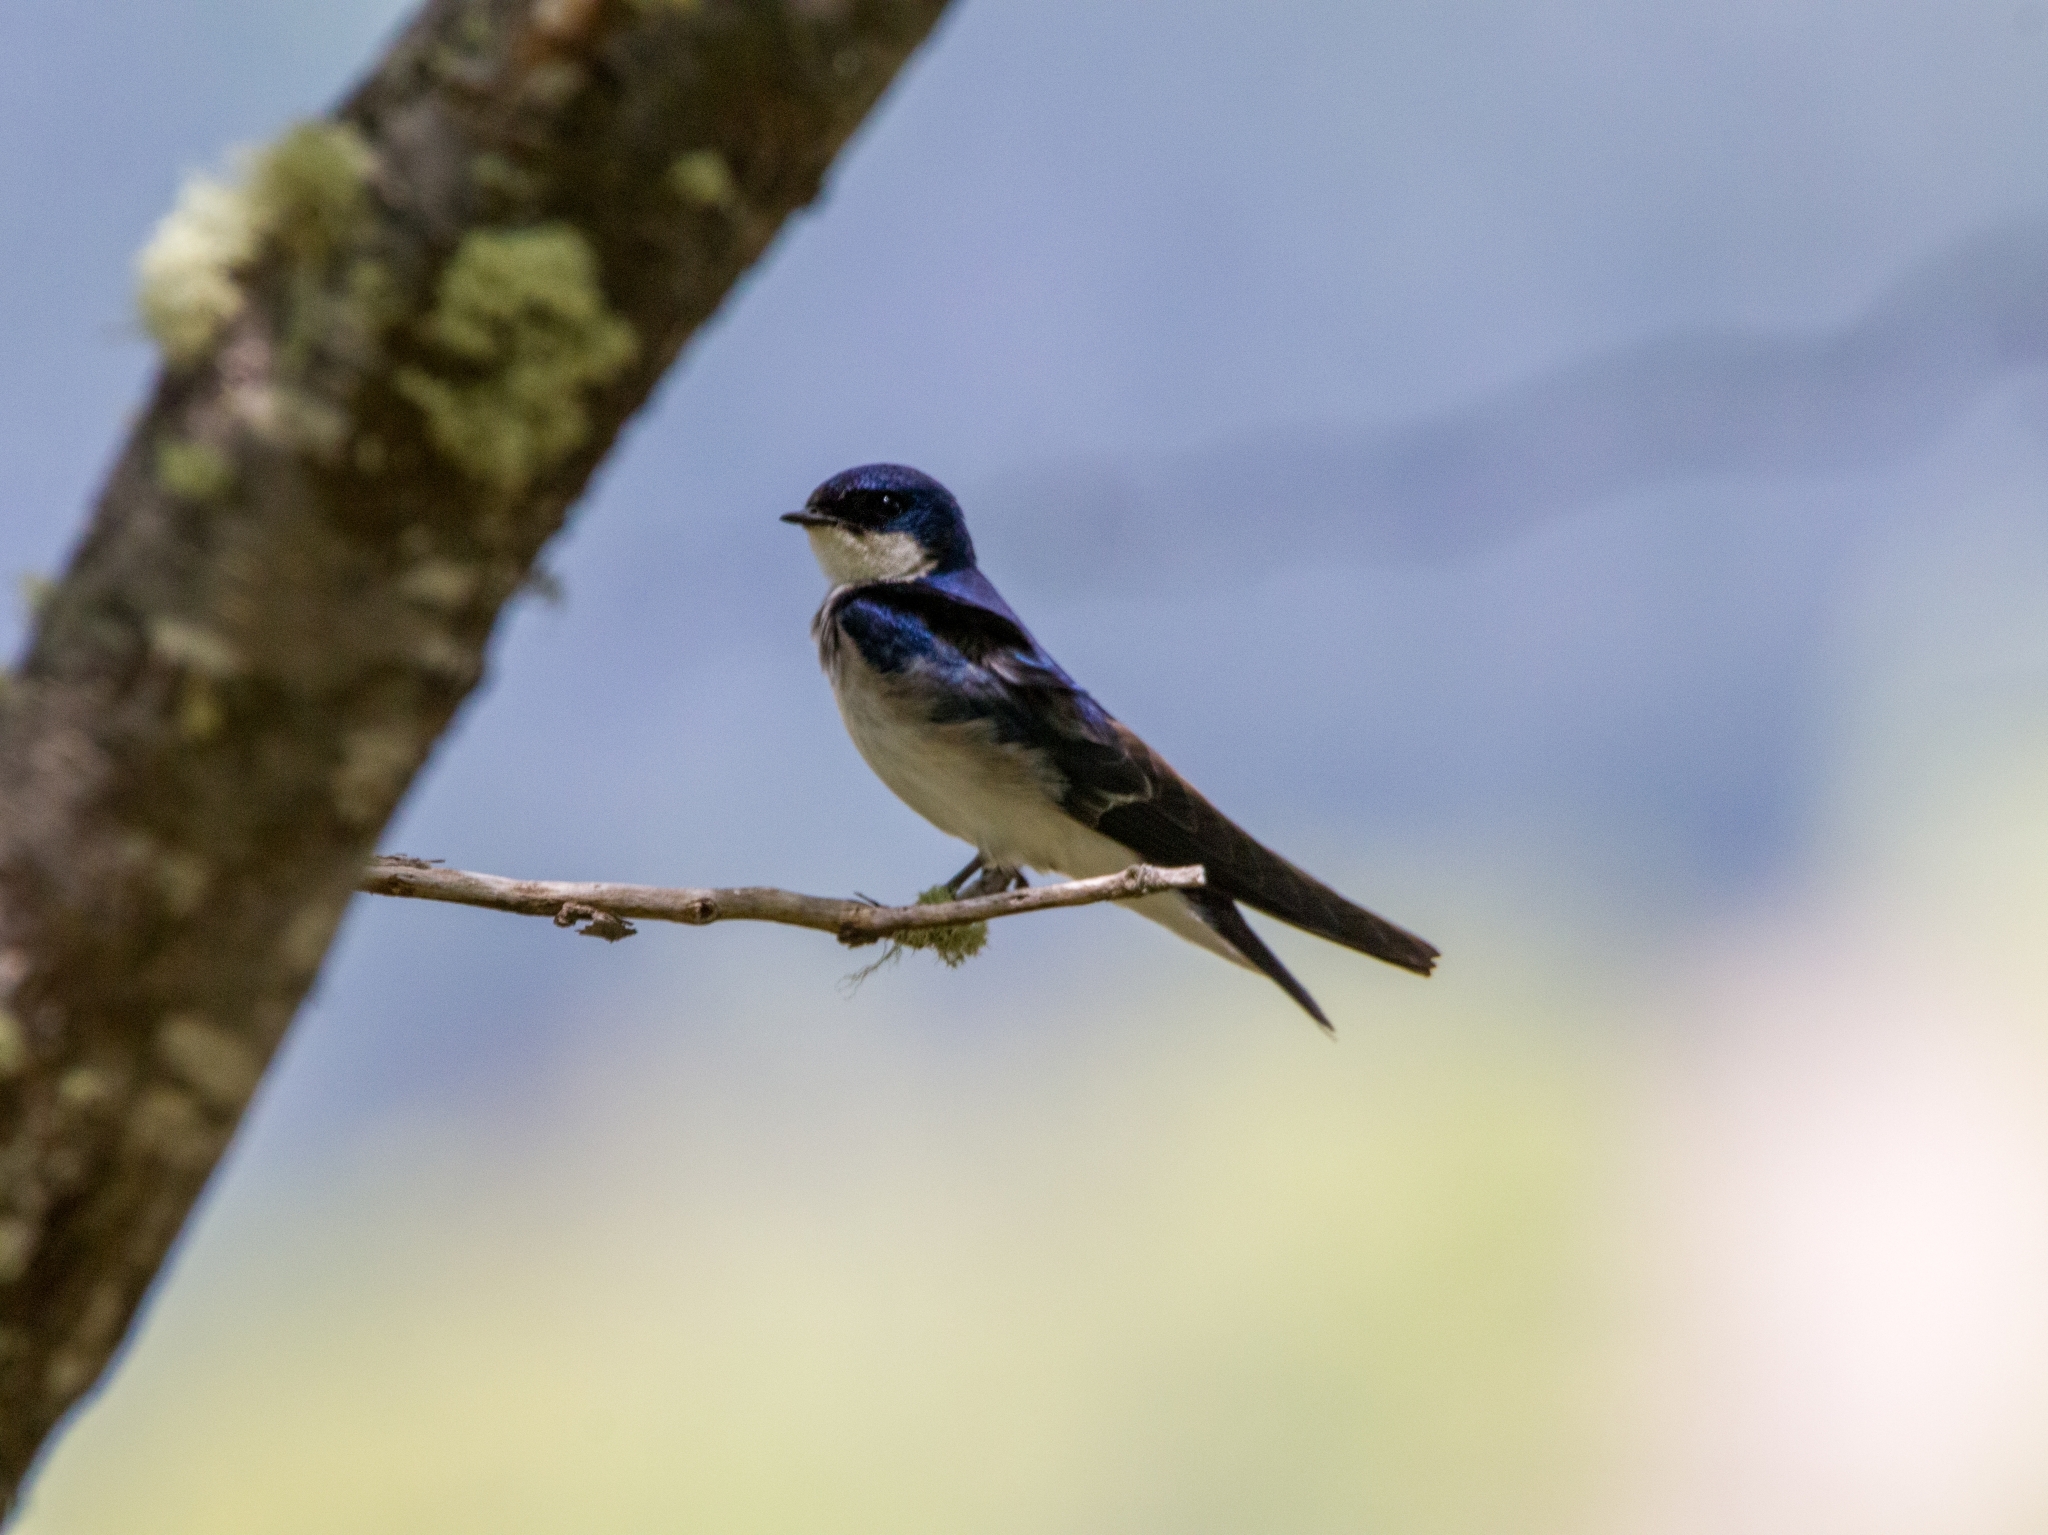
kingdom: Animalia
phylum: Chordata
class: Aves
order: Passeriformes
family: Hirundinidae
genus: Tachycineta
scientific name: Tachycineta leucopyga
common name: Chilean swallow
